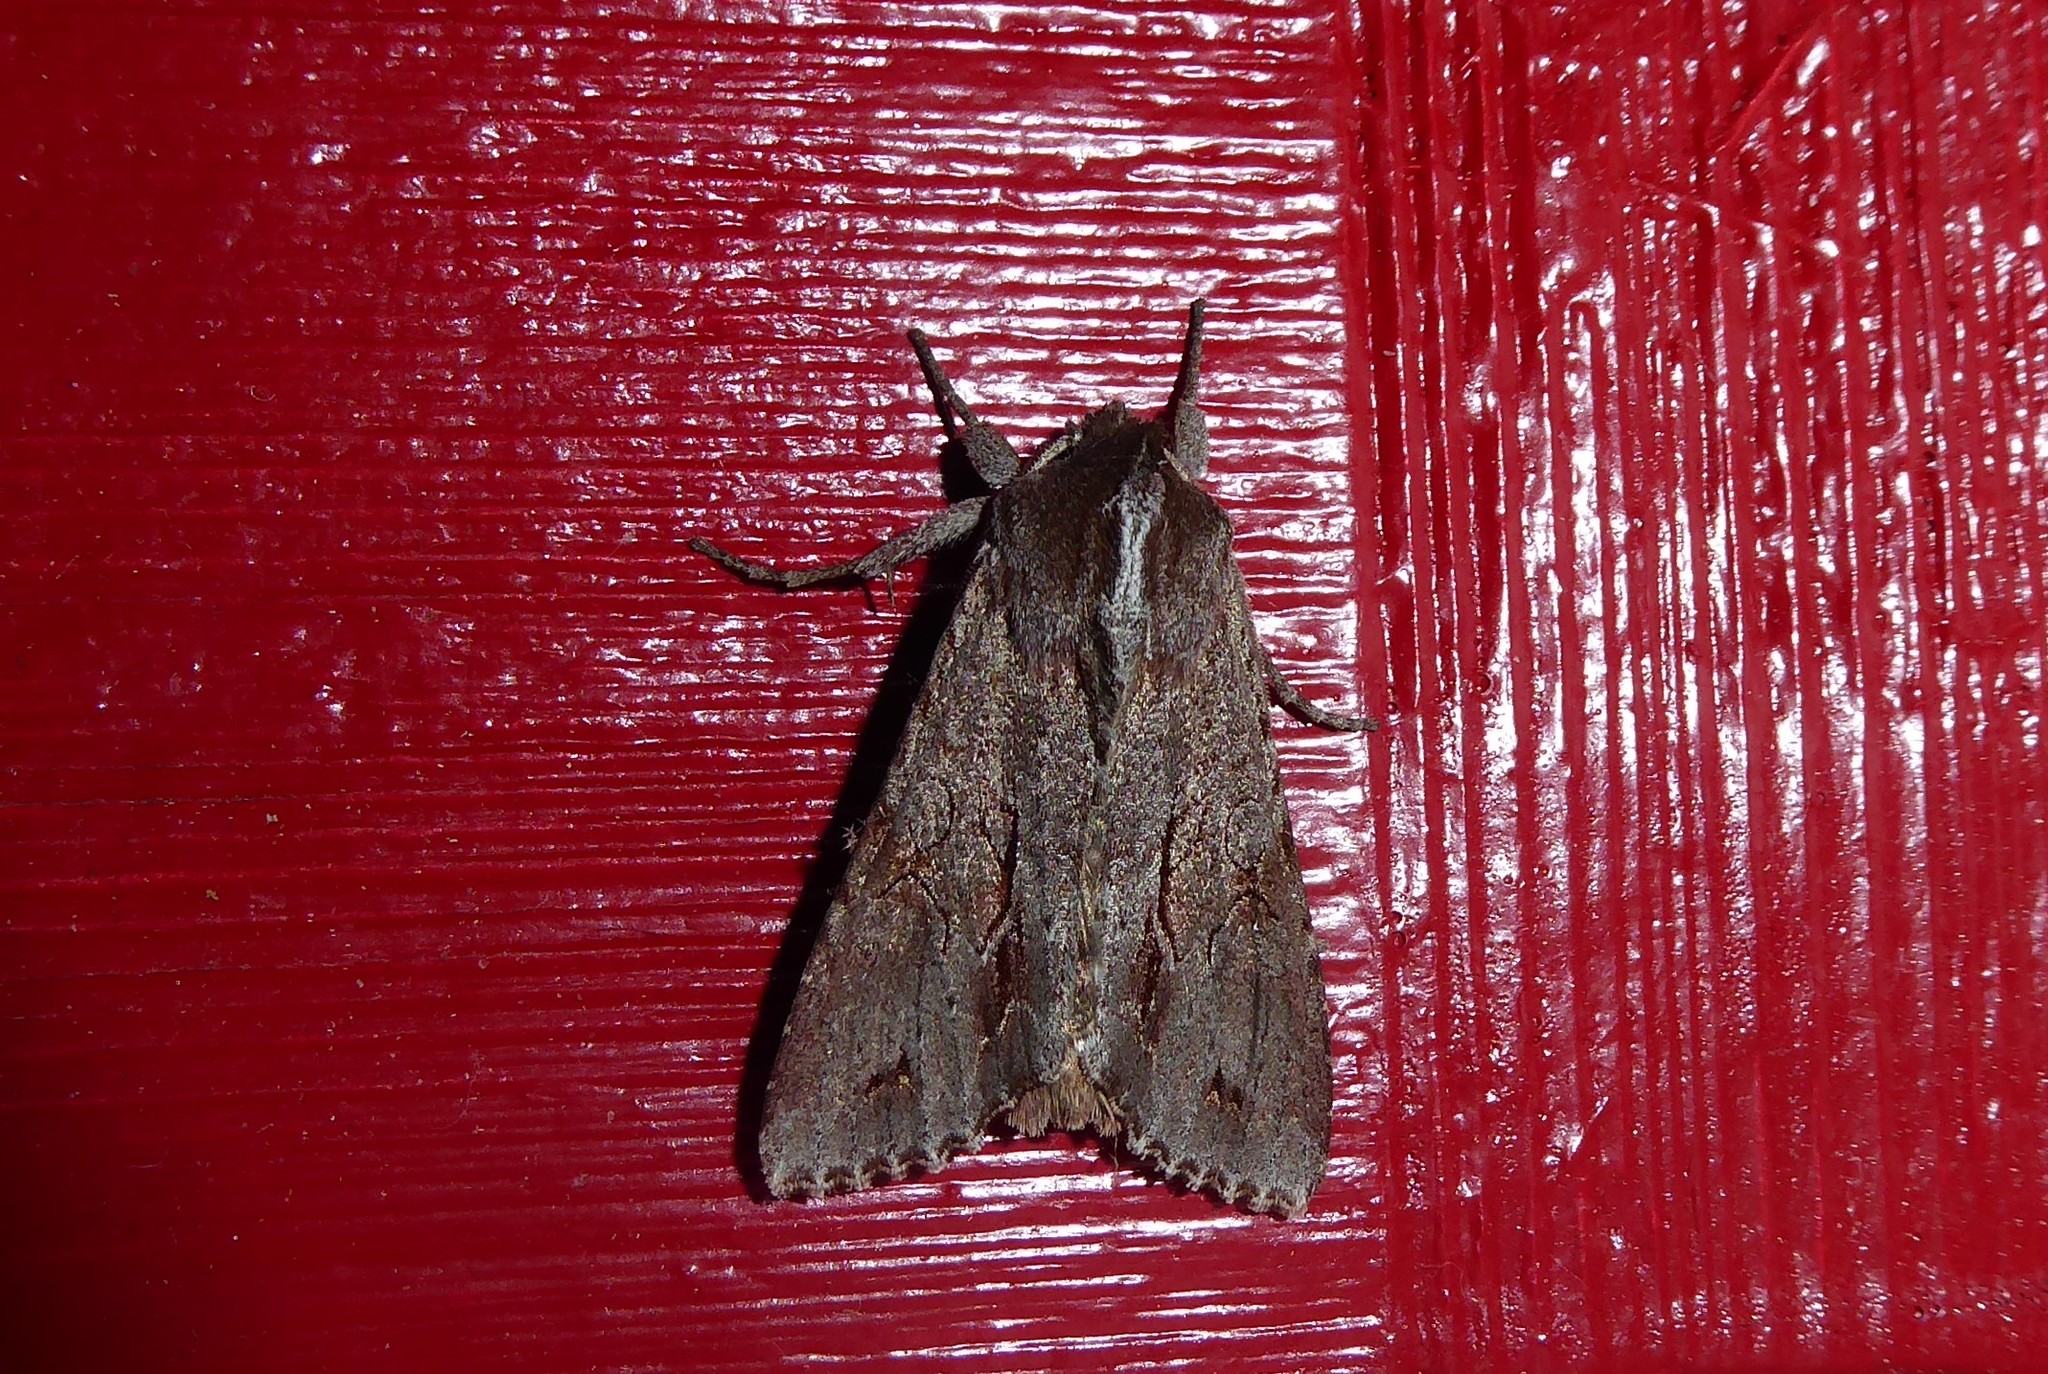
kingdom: Animalia
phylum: Arthropoda
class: Insecta
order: Lepidoptera
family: Noctuidae
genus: Ichneutica
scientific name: Ichneutica
